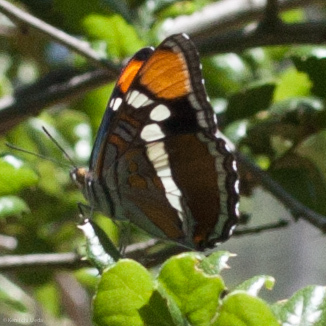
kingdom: Animalia
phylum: Arthropoda
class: Insecta
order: Lepidoptera
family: Nymphalidae
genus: Limenitis
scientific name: Limenitis bredowii
